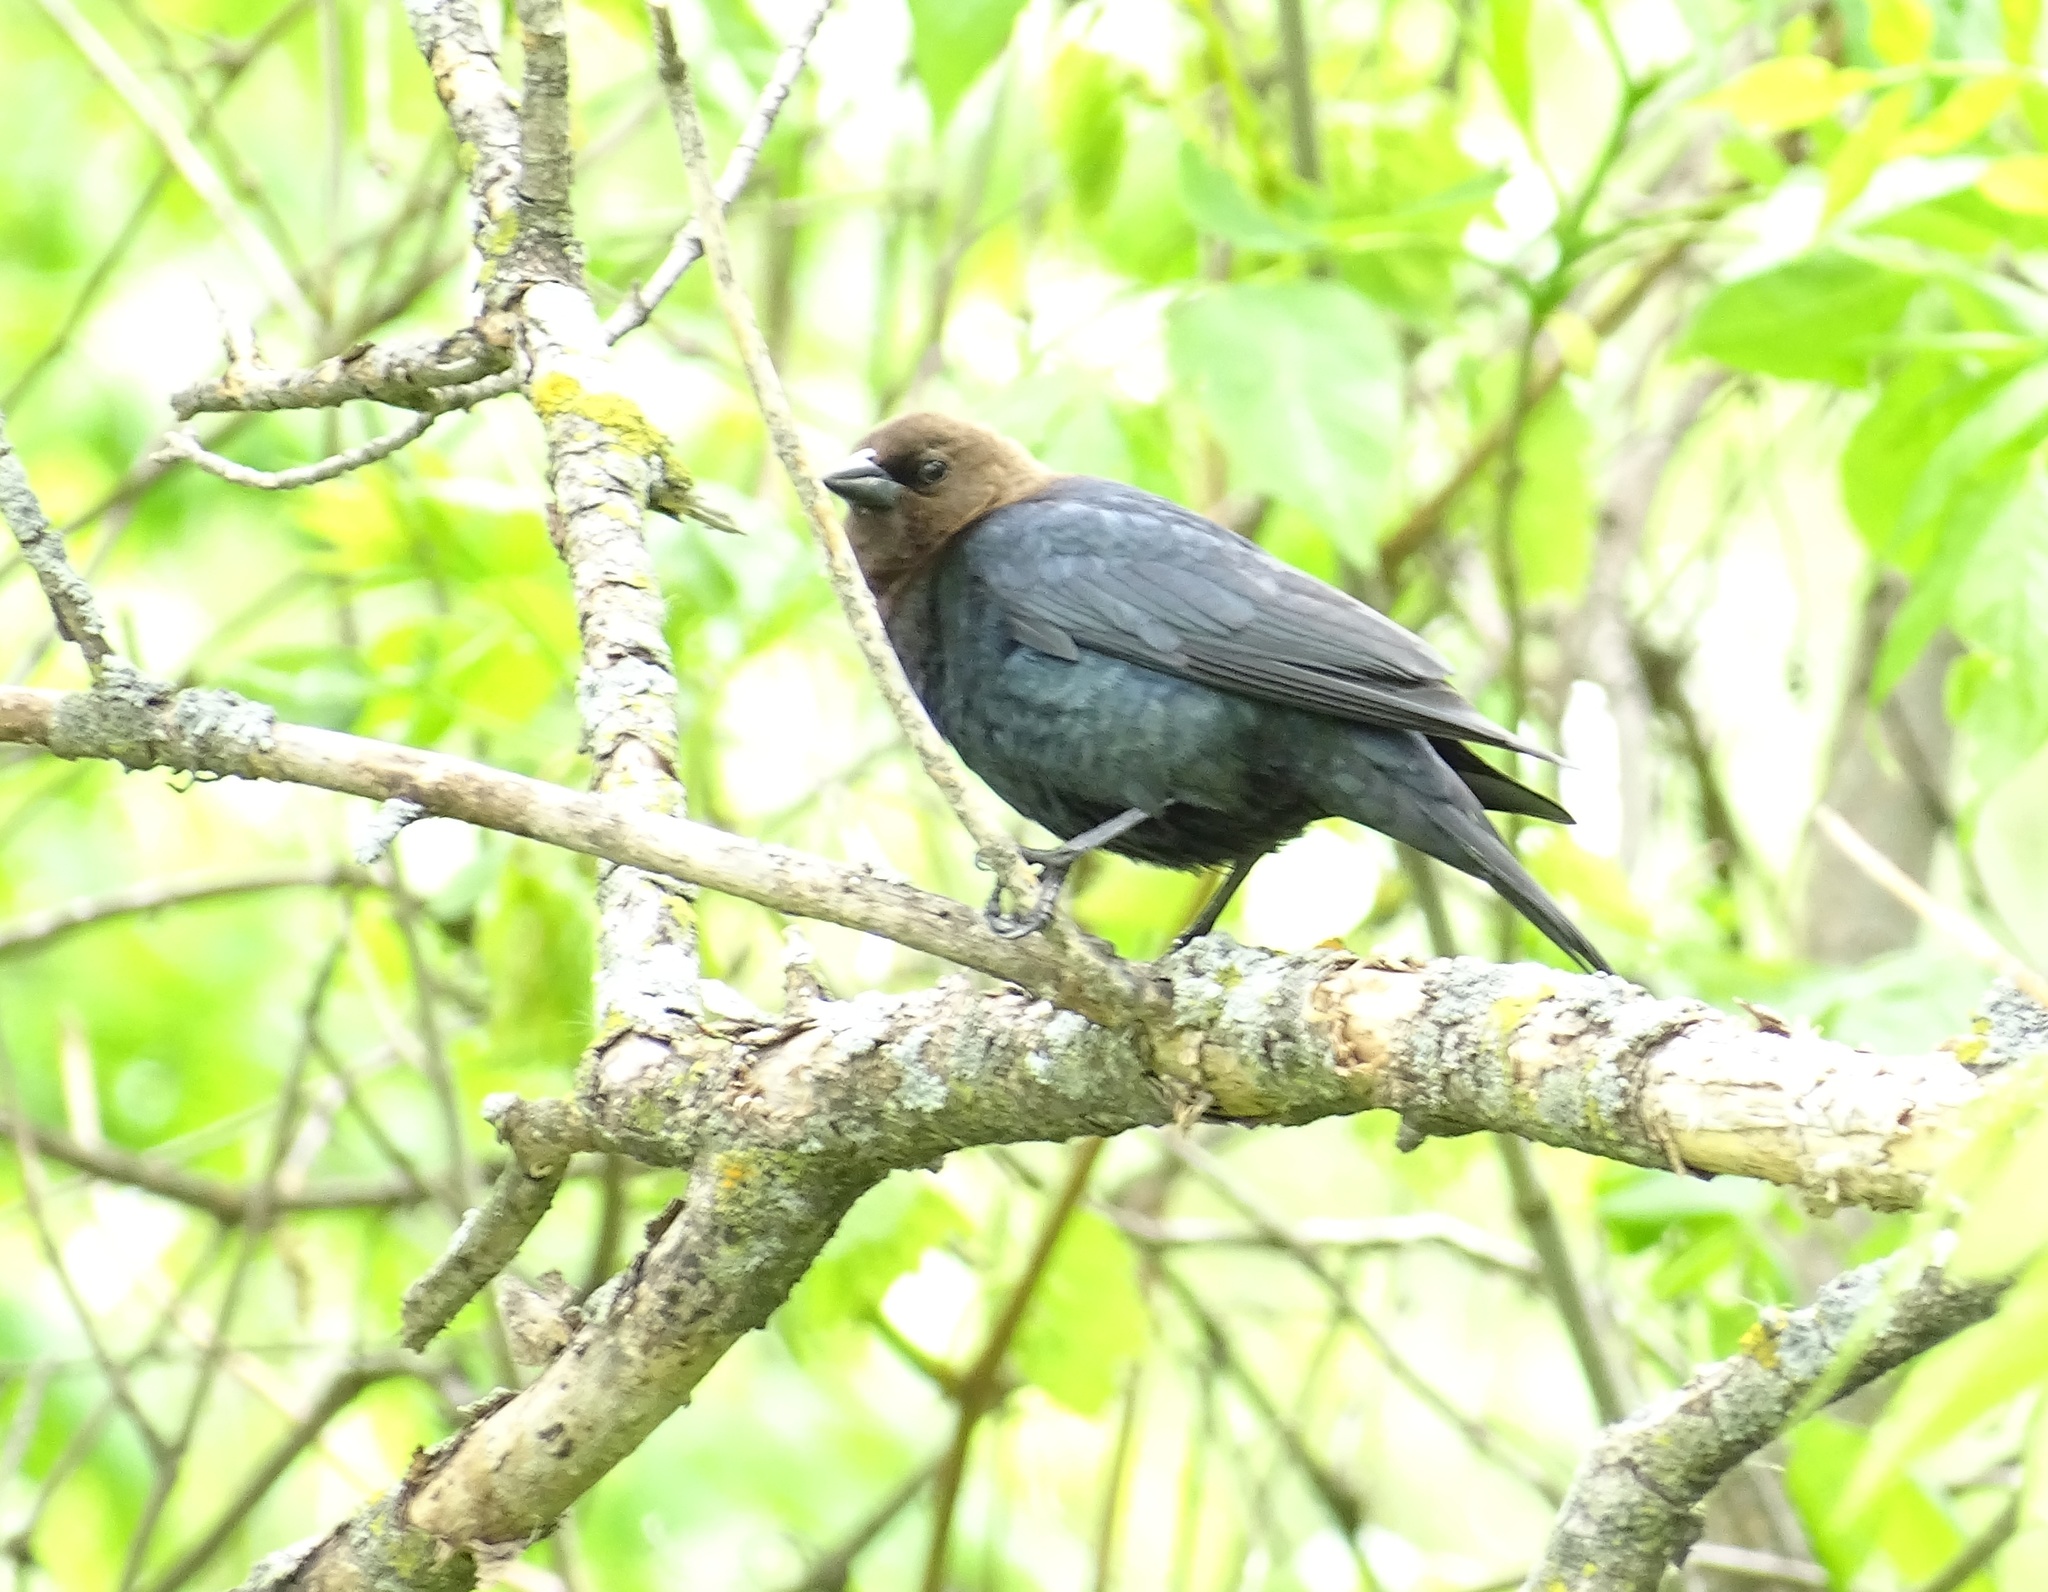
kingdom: Animalia
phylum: Chordata
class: Aves
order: Passeriformes
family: Icteridae
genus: Molothrus
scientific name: Molothrus ater
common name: Brown-headed cowbird
